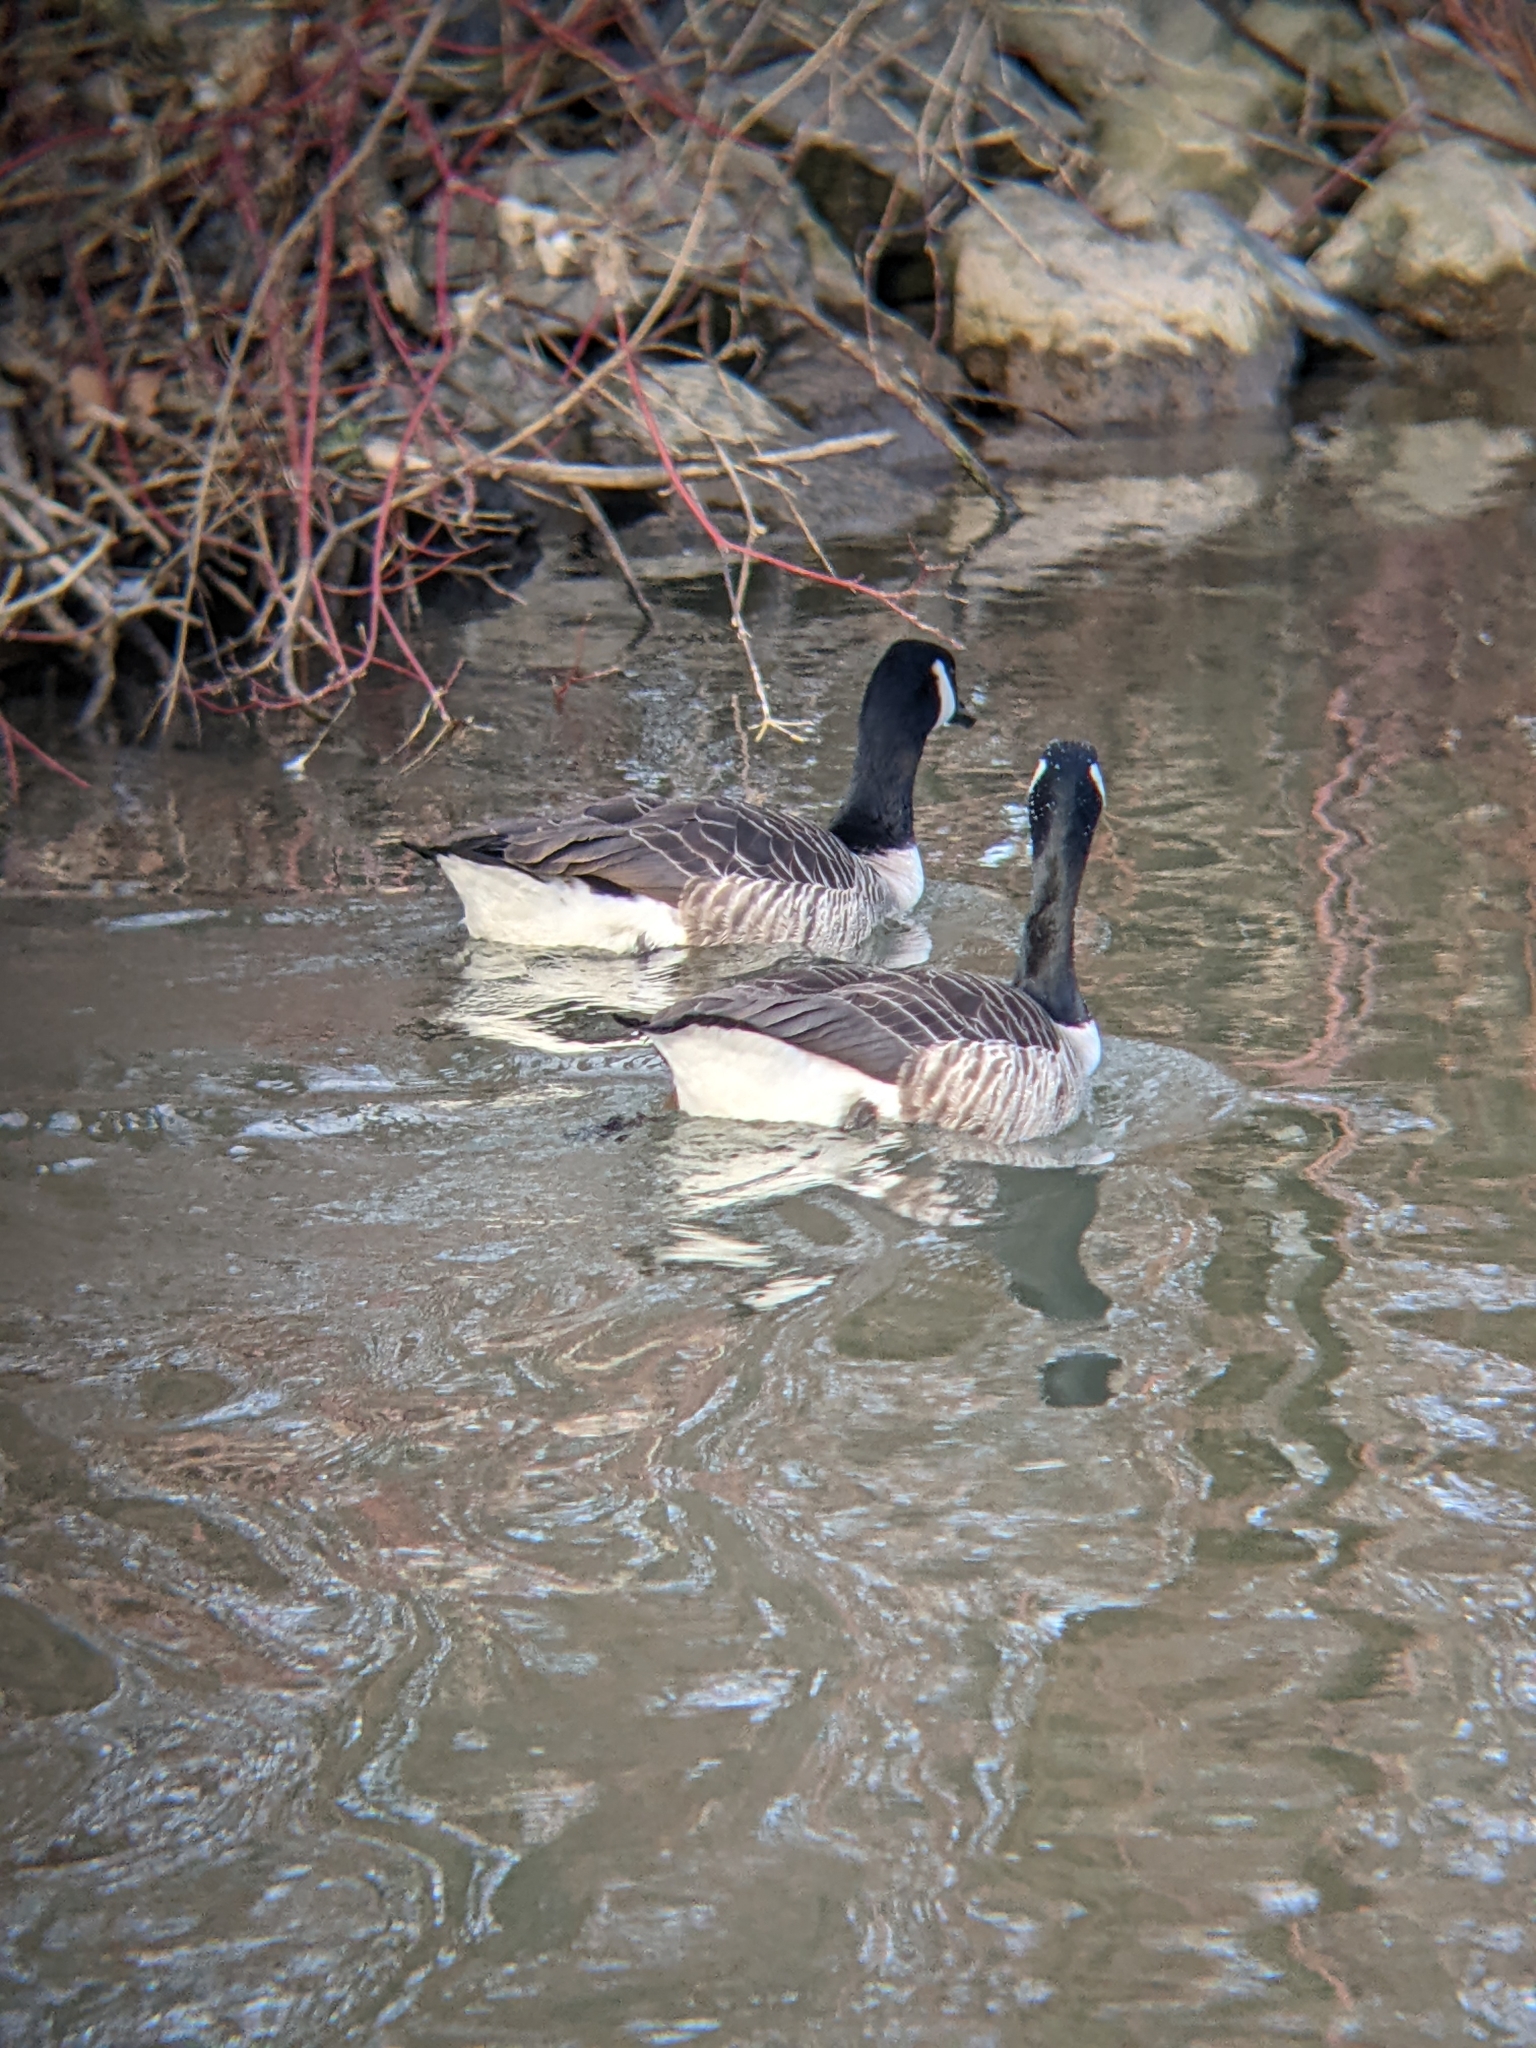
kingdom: Animalia
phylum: Chordata
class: Aves
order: Anseriformes
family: Anatidae
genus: Branta
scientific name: Branta canadensis
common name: Canada goose
